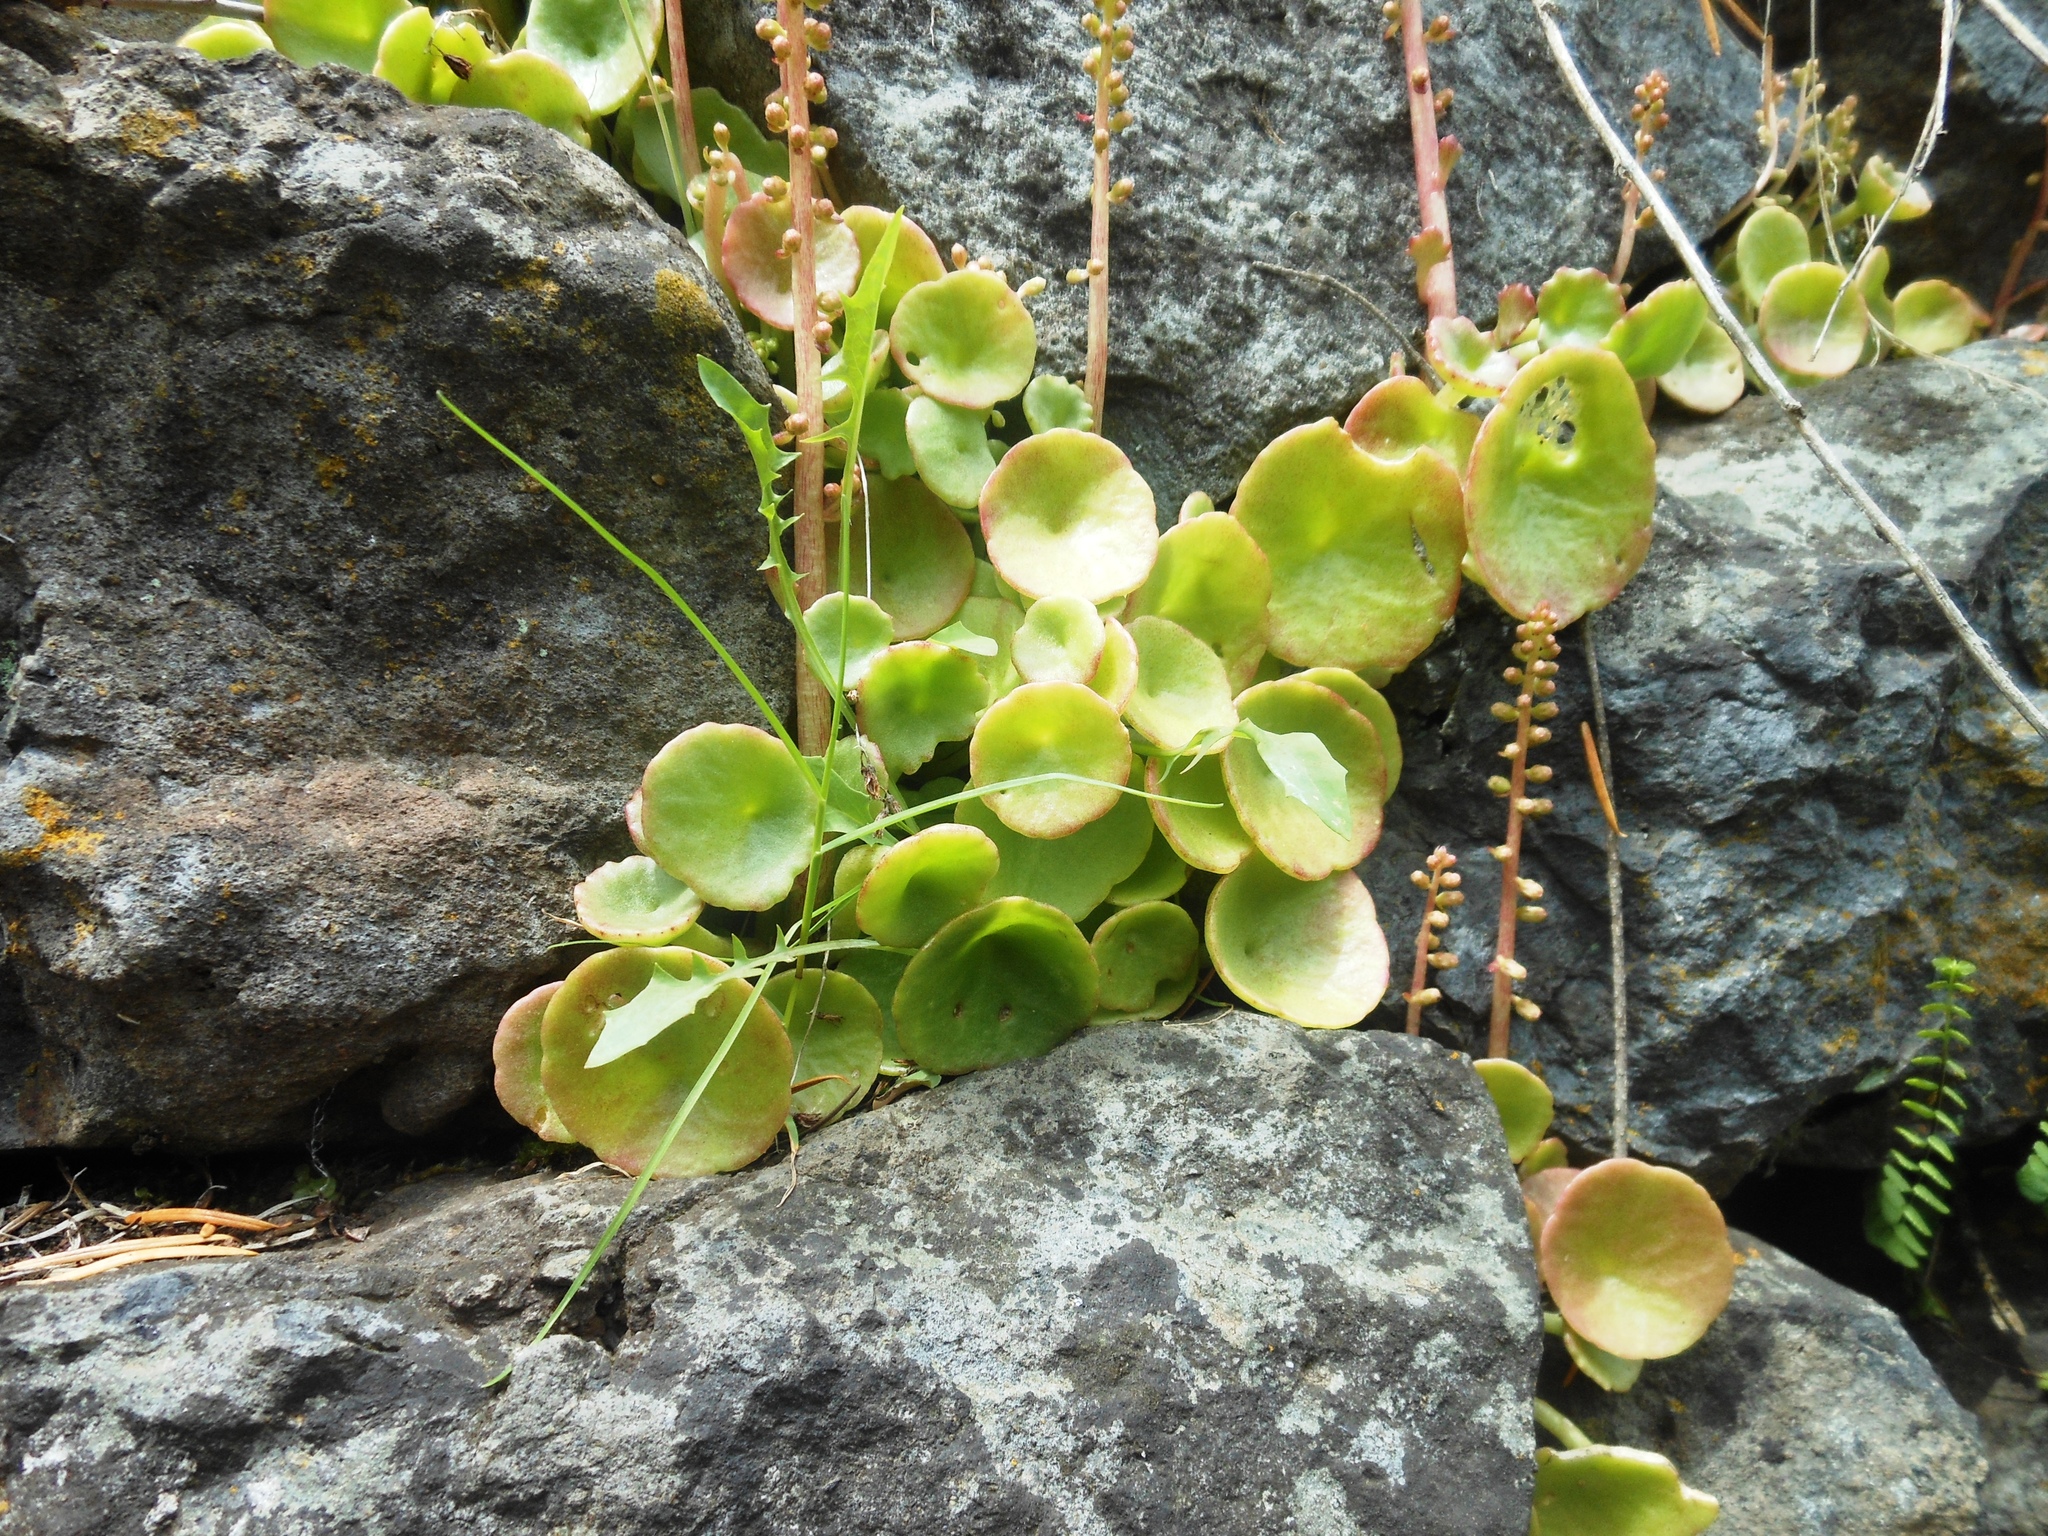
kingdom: Plantae
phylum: Tracheophyta
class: Magnoliopsida
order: Saxifragales
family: Crassulaceae
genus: Umbilicus
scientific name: Umbilicus rupestris
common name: Navelwort
